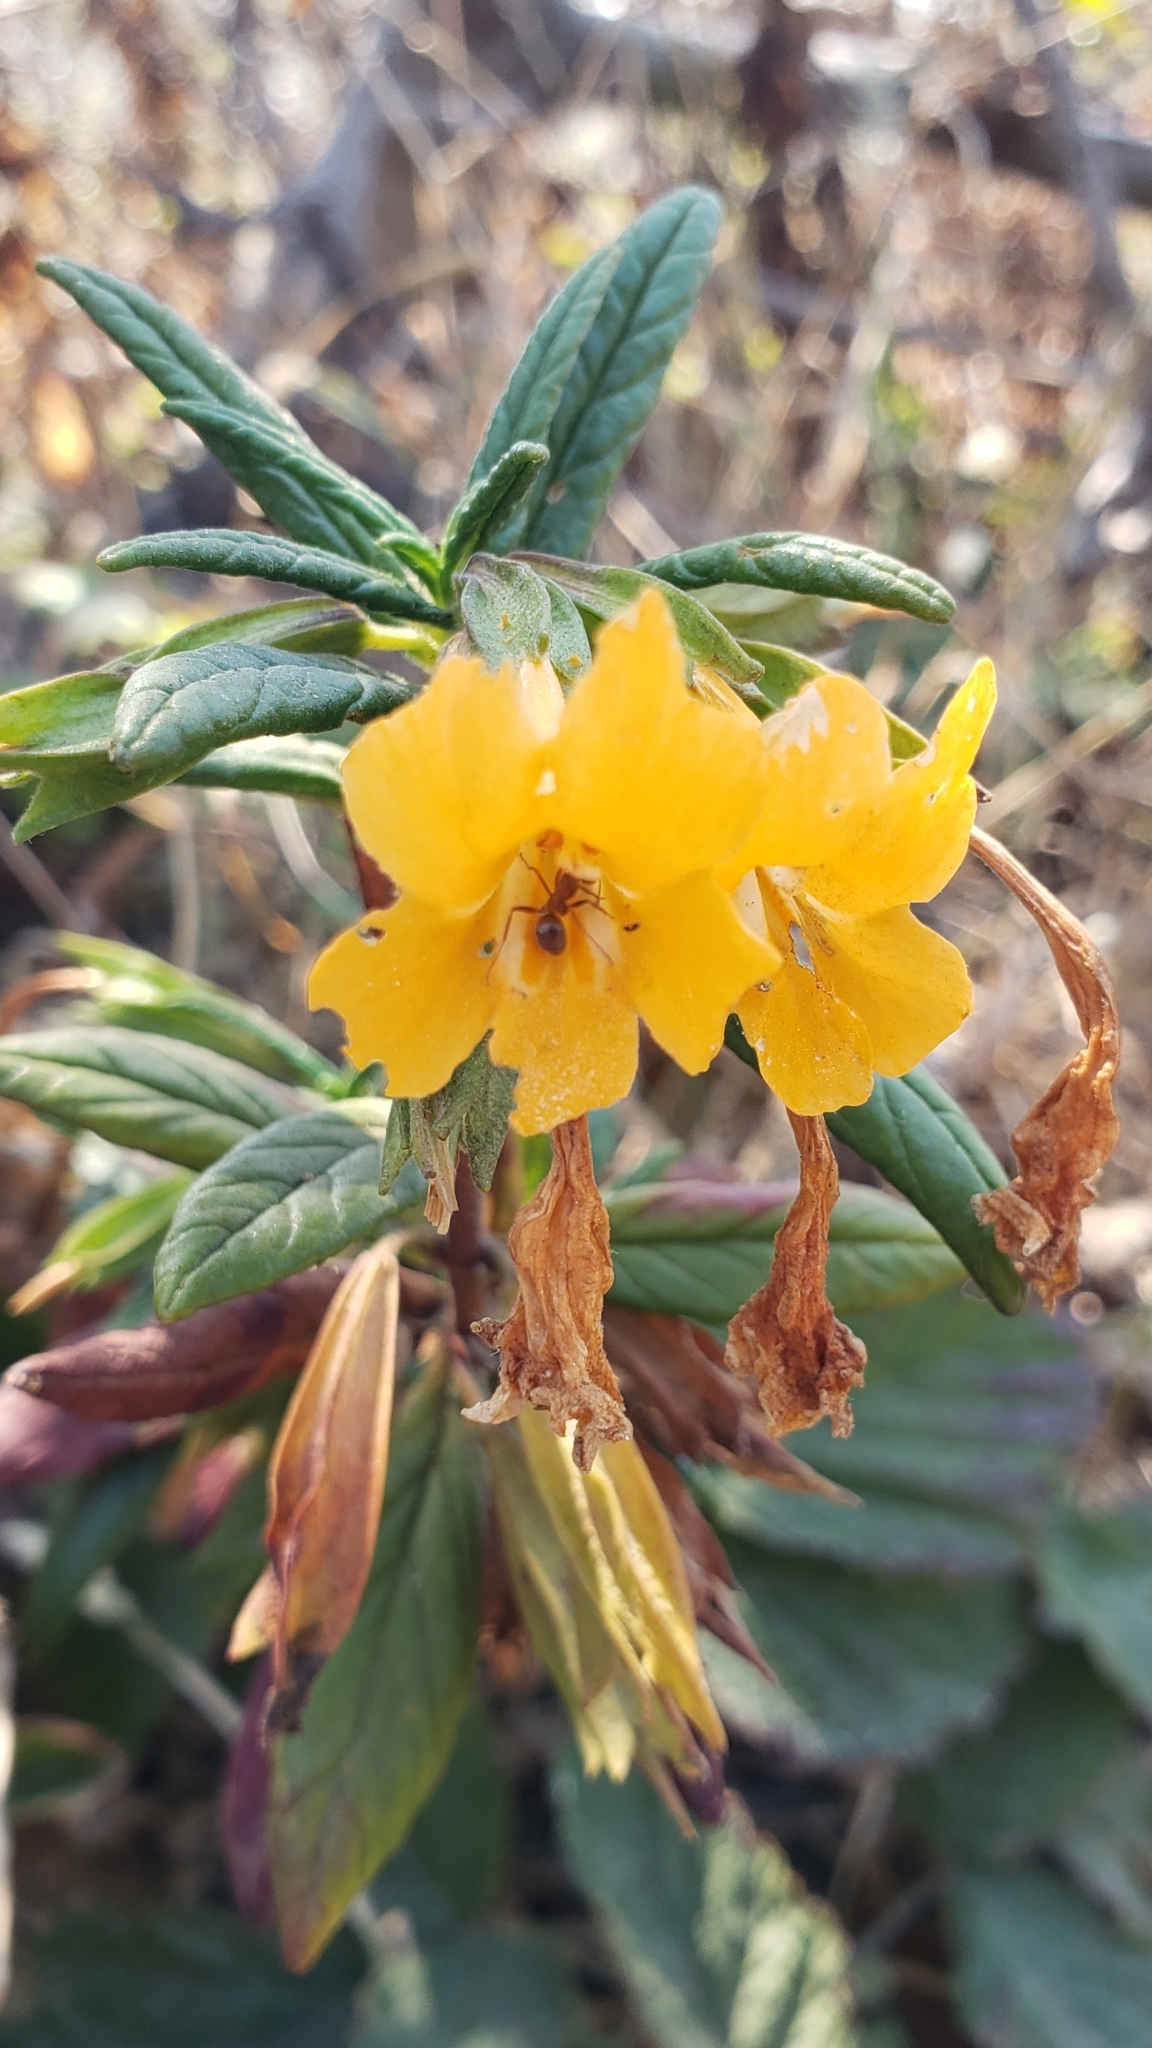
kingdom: Plantae
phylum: Tracheophyta
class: Magnoliopsida
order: Lamiales
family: Phrymaceae
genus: Diplacus
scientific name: Diplacus aurantiacus
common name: Bush monkey-flower
